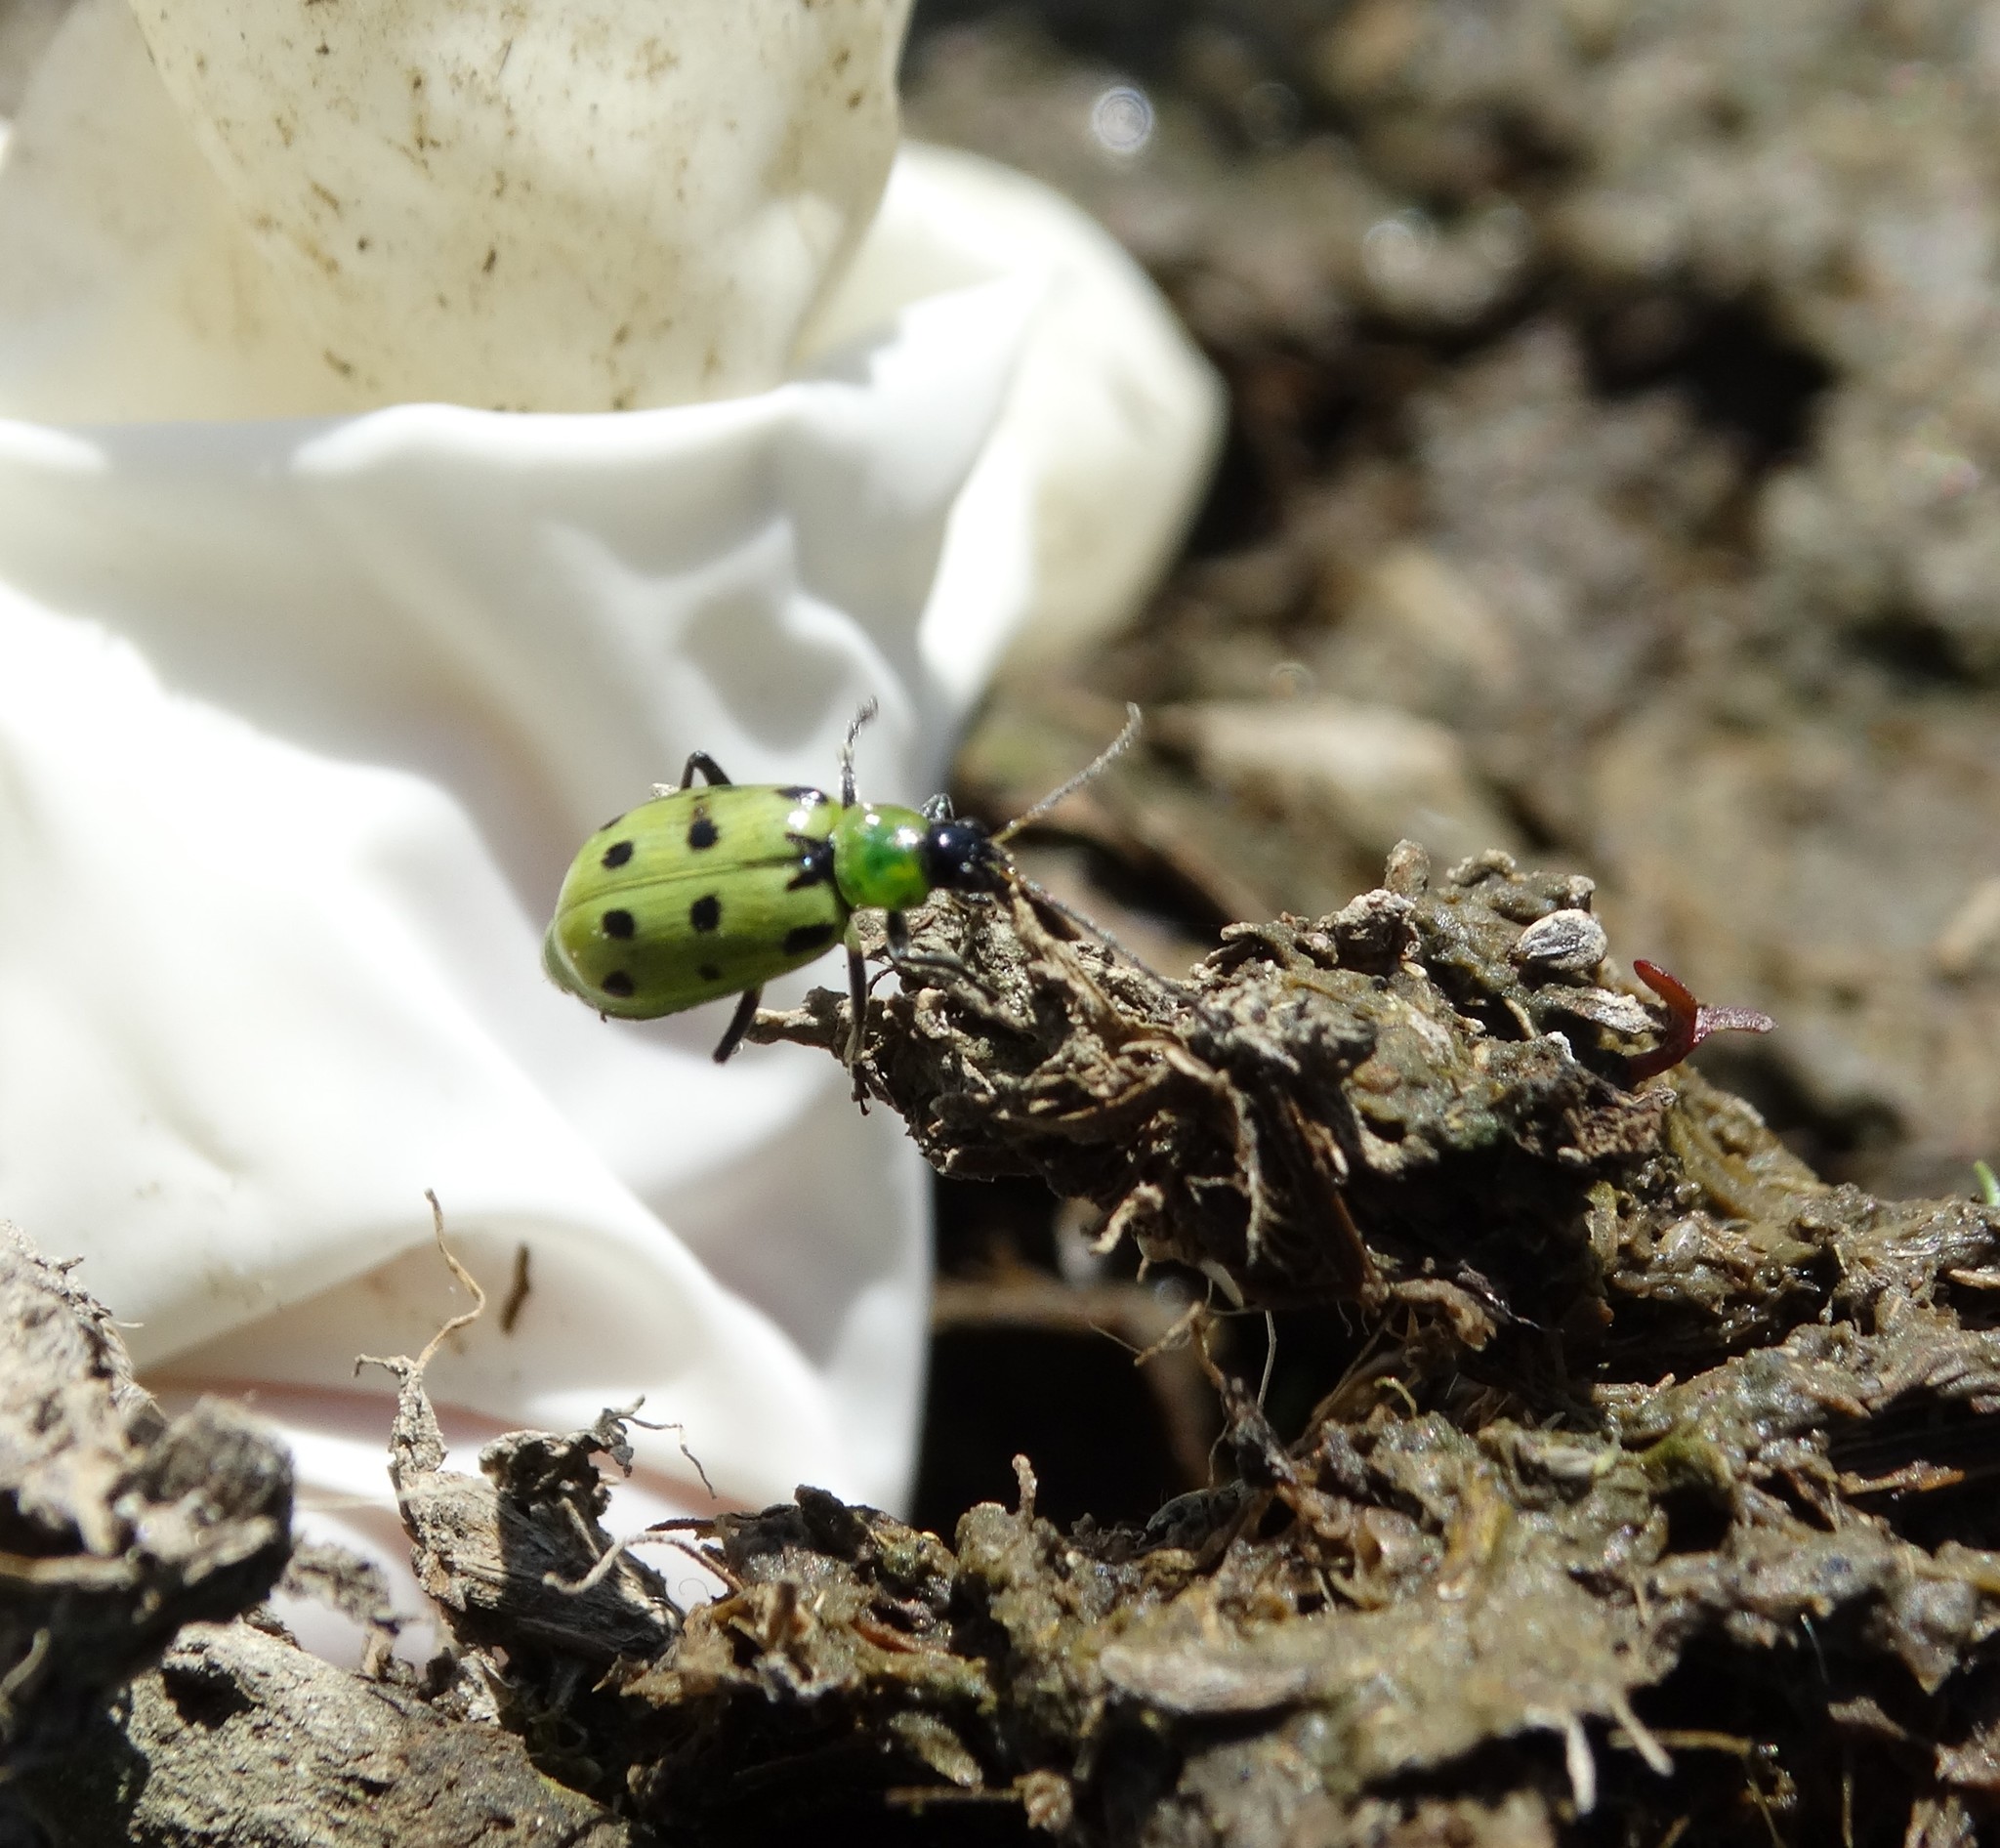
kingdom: Animalia
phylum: Arthropoda
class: Insecta
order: Coleoptera
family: Chrysomelidae
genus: Diabrotica
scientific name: Diabrotica undecimpunctata
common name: Spotted cucumber beetle
